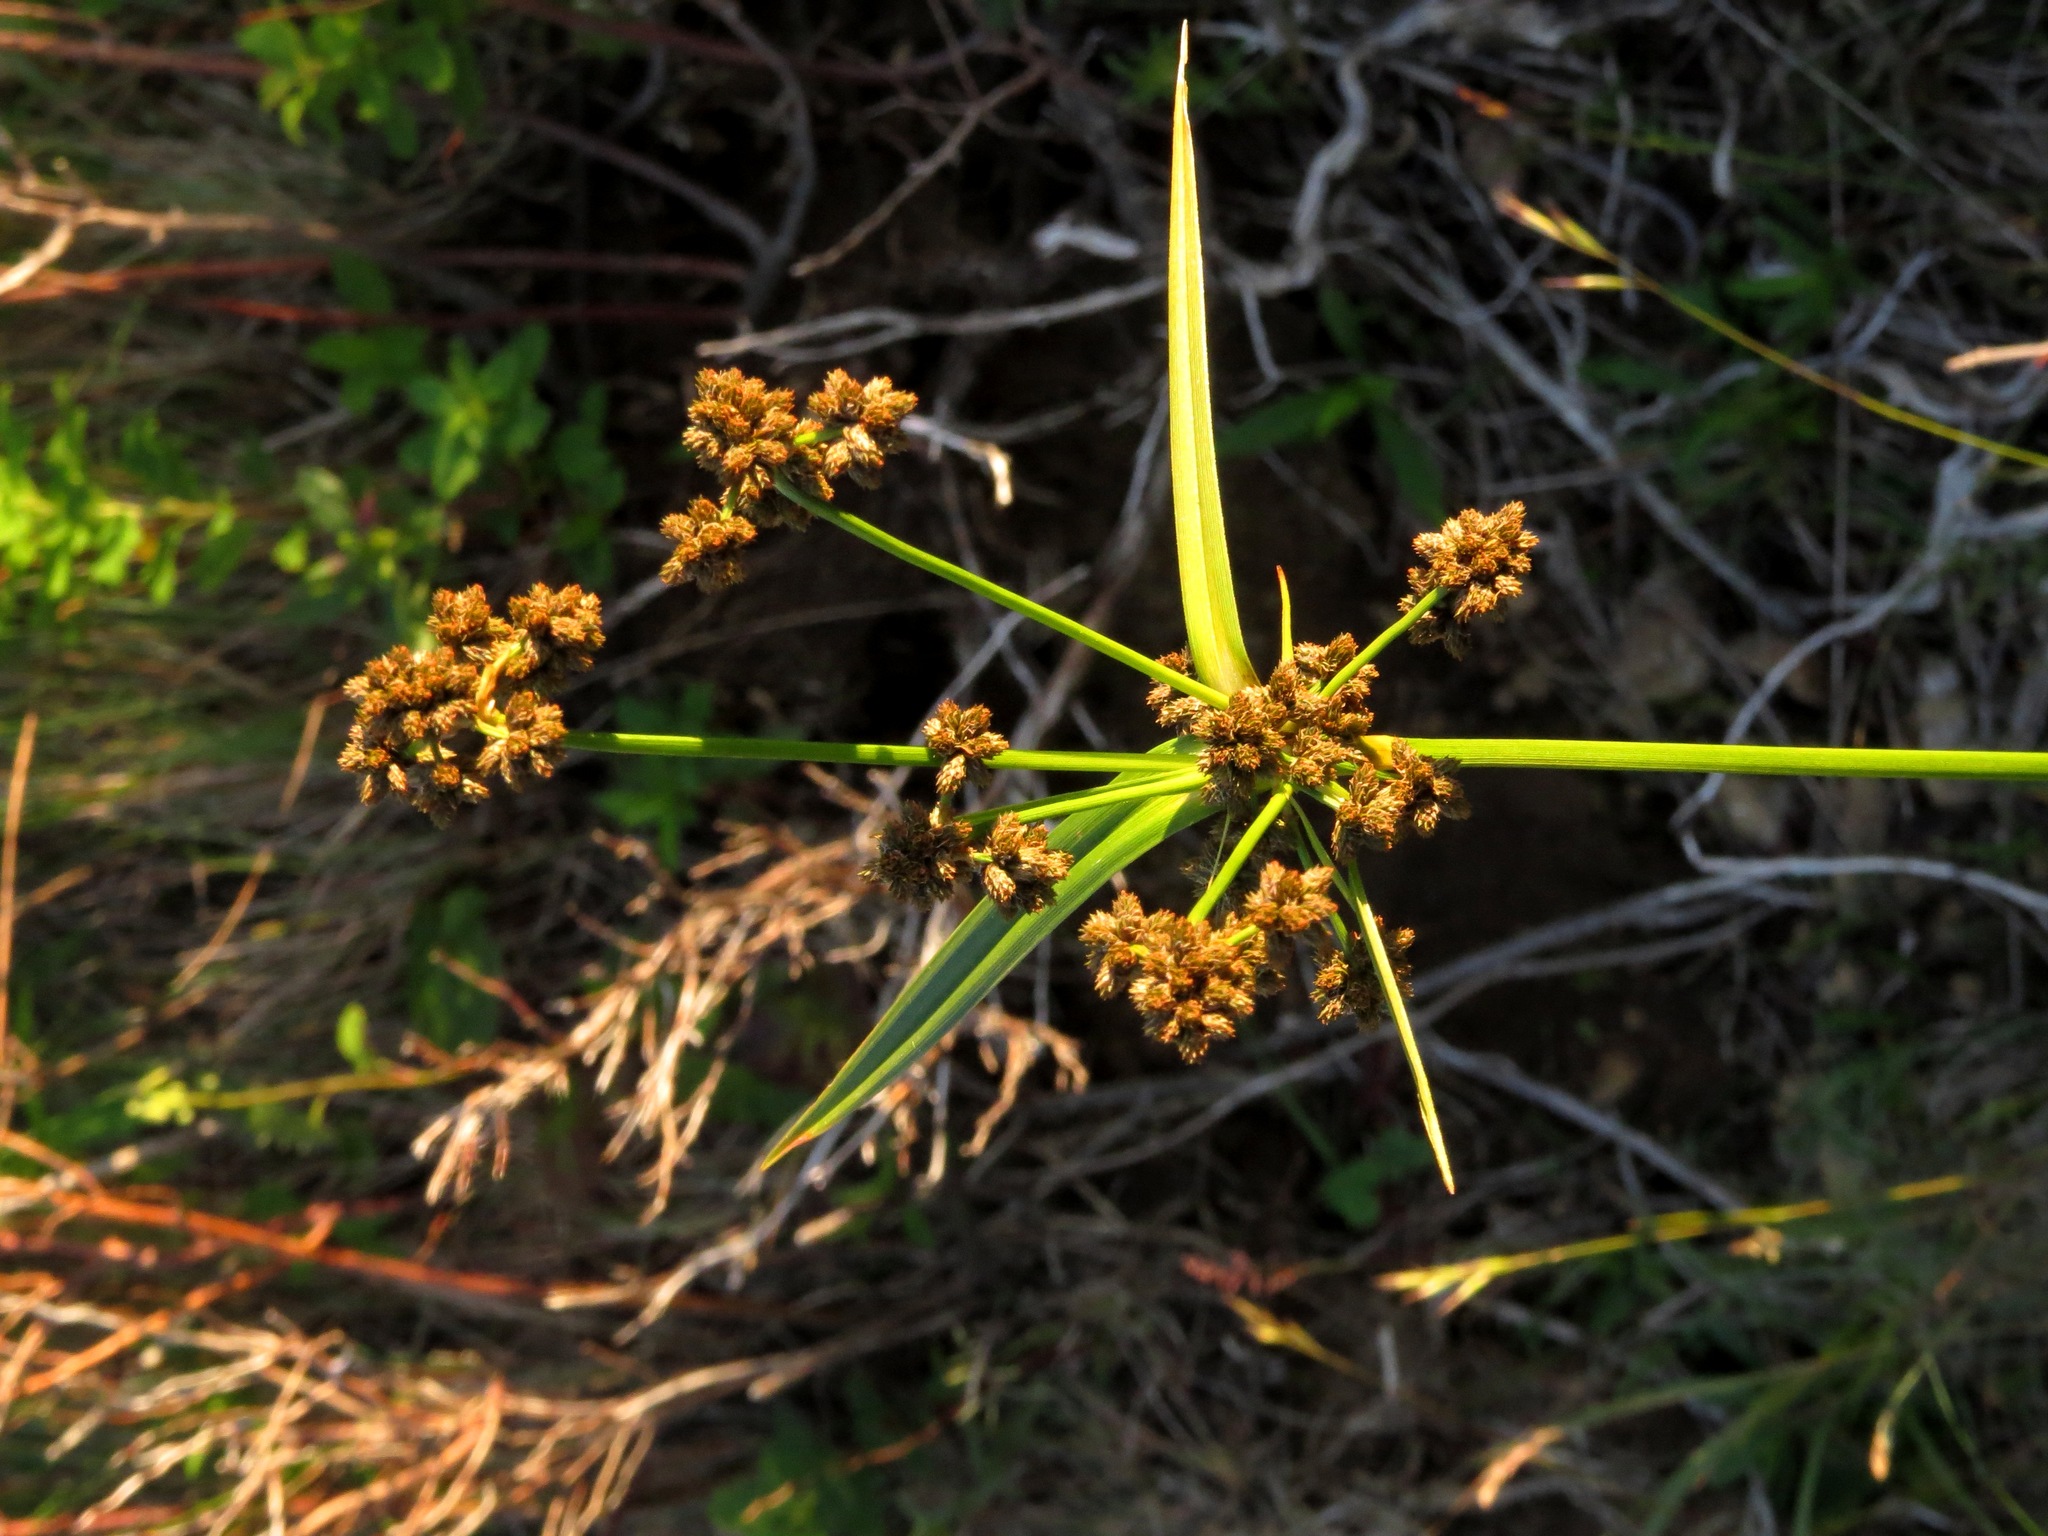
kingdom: Plantae
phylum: Tracheophyta
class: Liliopsida
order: Poales
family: Cyperaceae
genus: Scirpus
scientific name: Scirpus hattorianus
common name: Early dark-green bulrush
